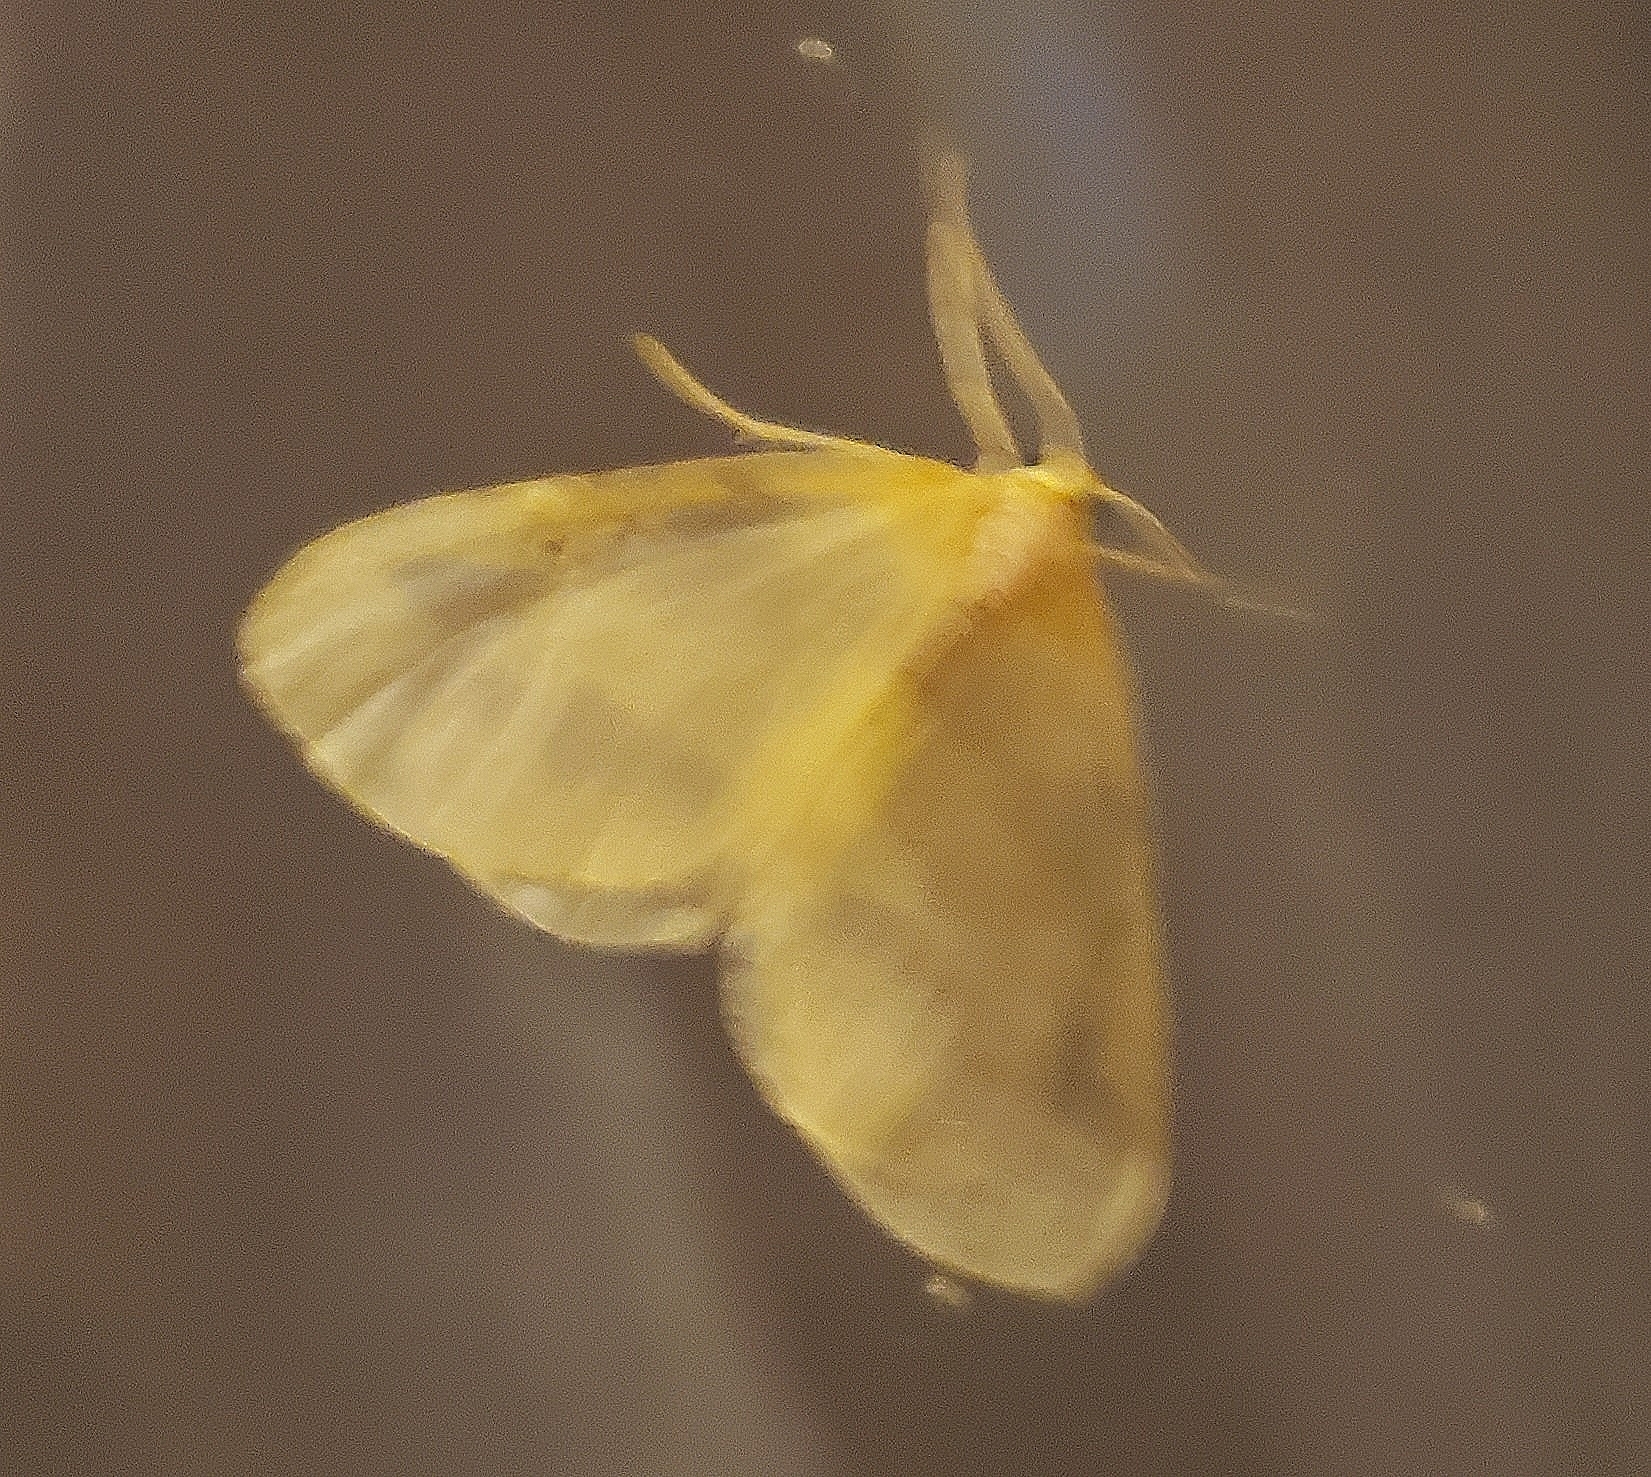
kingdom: Animalia
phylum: Arthropoda
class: Insecta
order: Lepidoptera
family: Geometridae
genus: Eubaphe
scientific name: Eubaphe mendica
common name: Beggar
